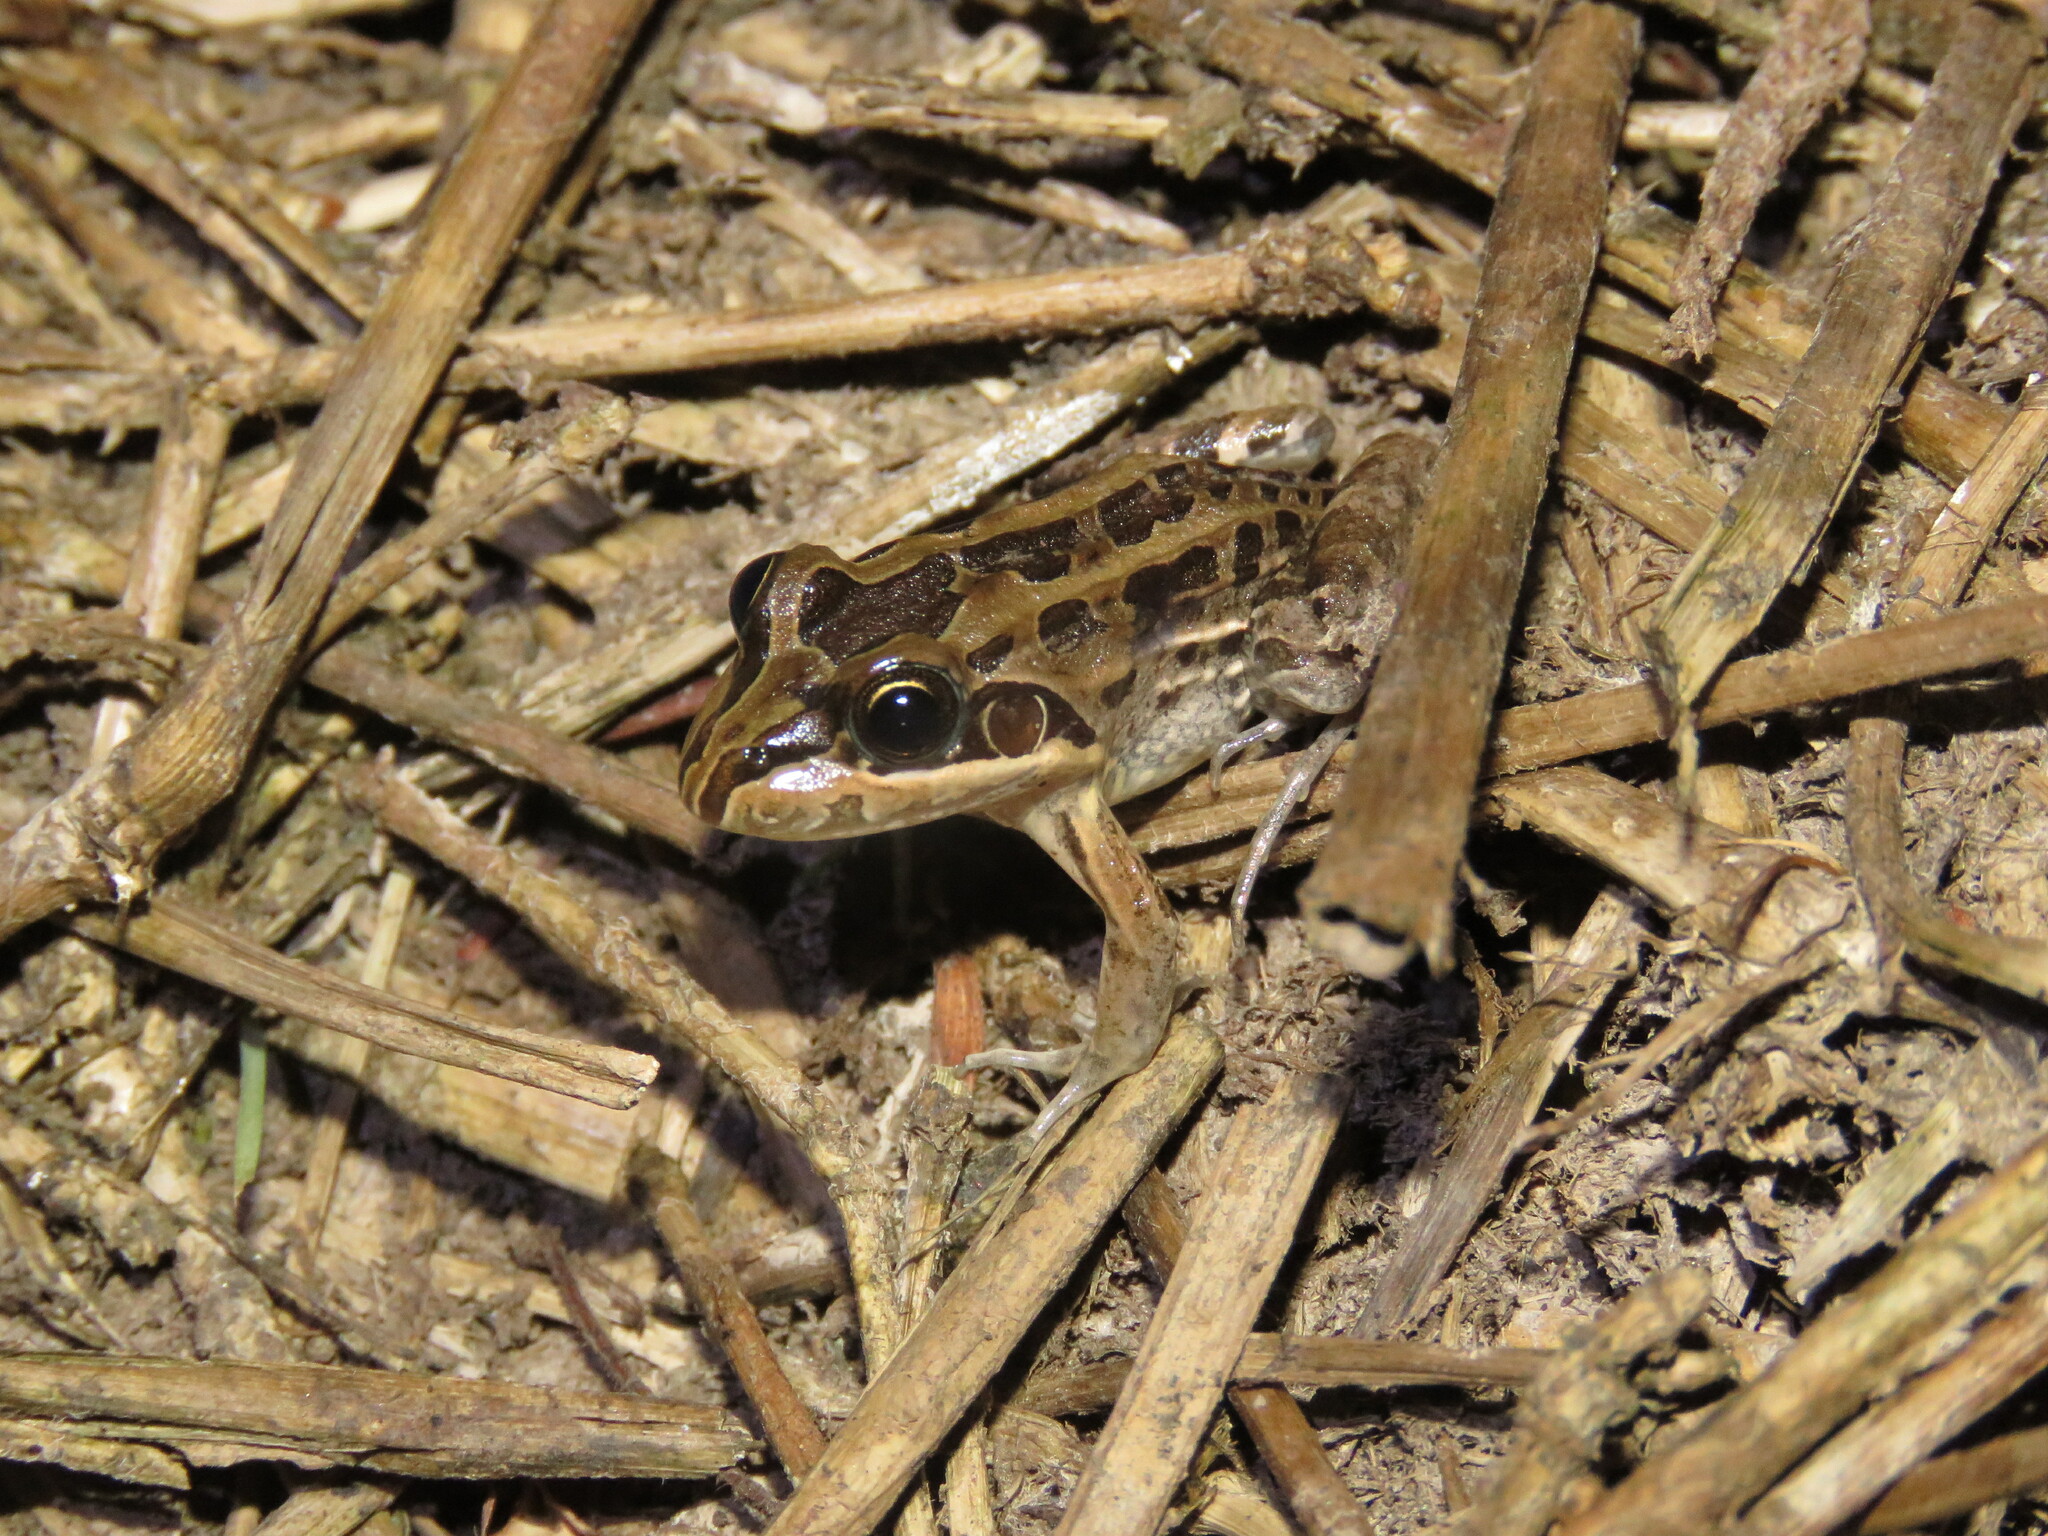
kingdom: Animalia
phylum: Chordata
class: Amphibia
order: Anura
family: Leptodactylidae
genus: Leptodactylus
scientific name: Leptodactylus fuscus
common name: Rufous frog
